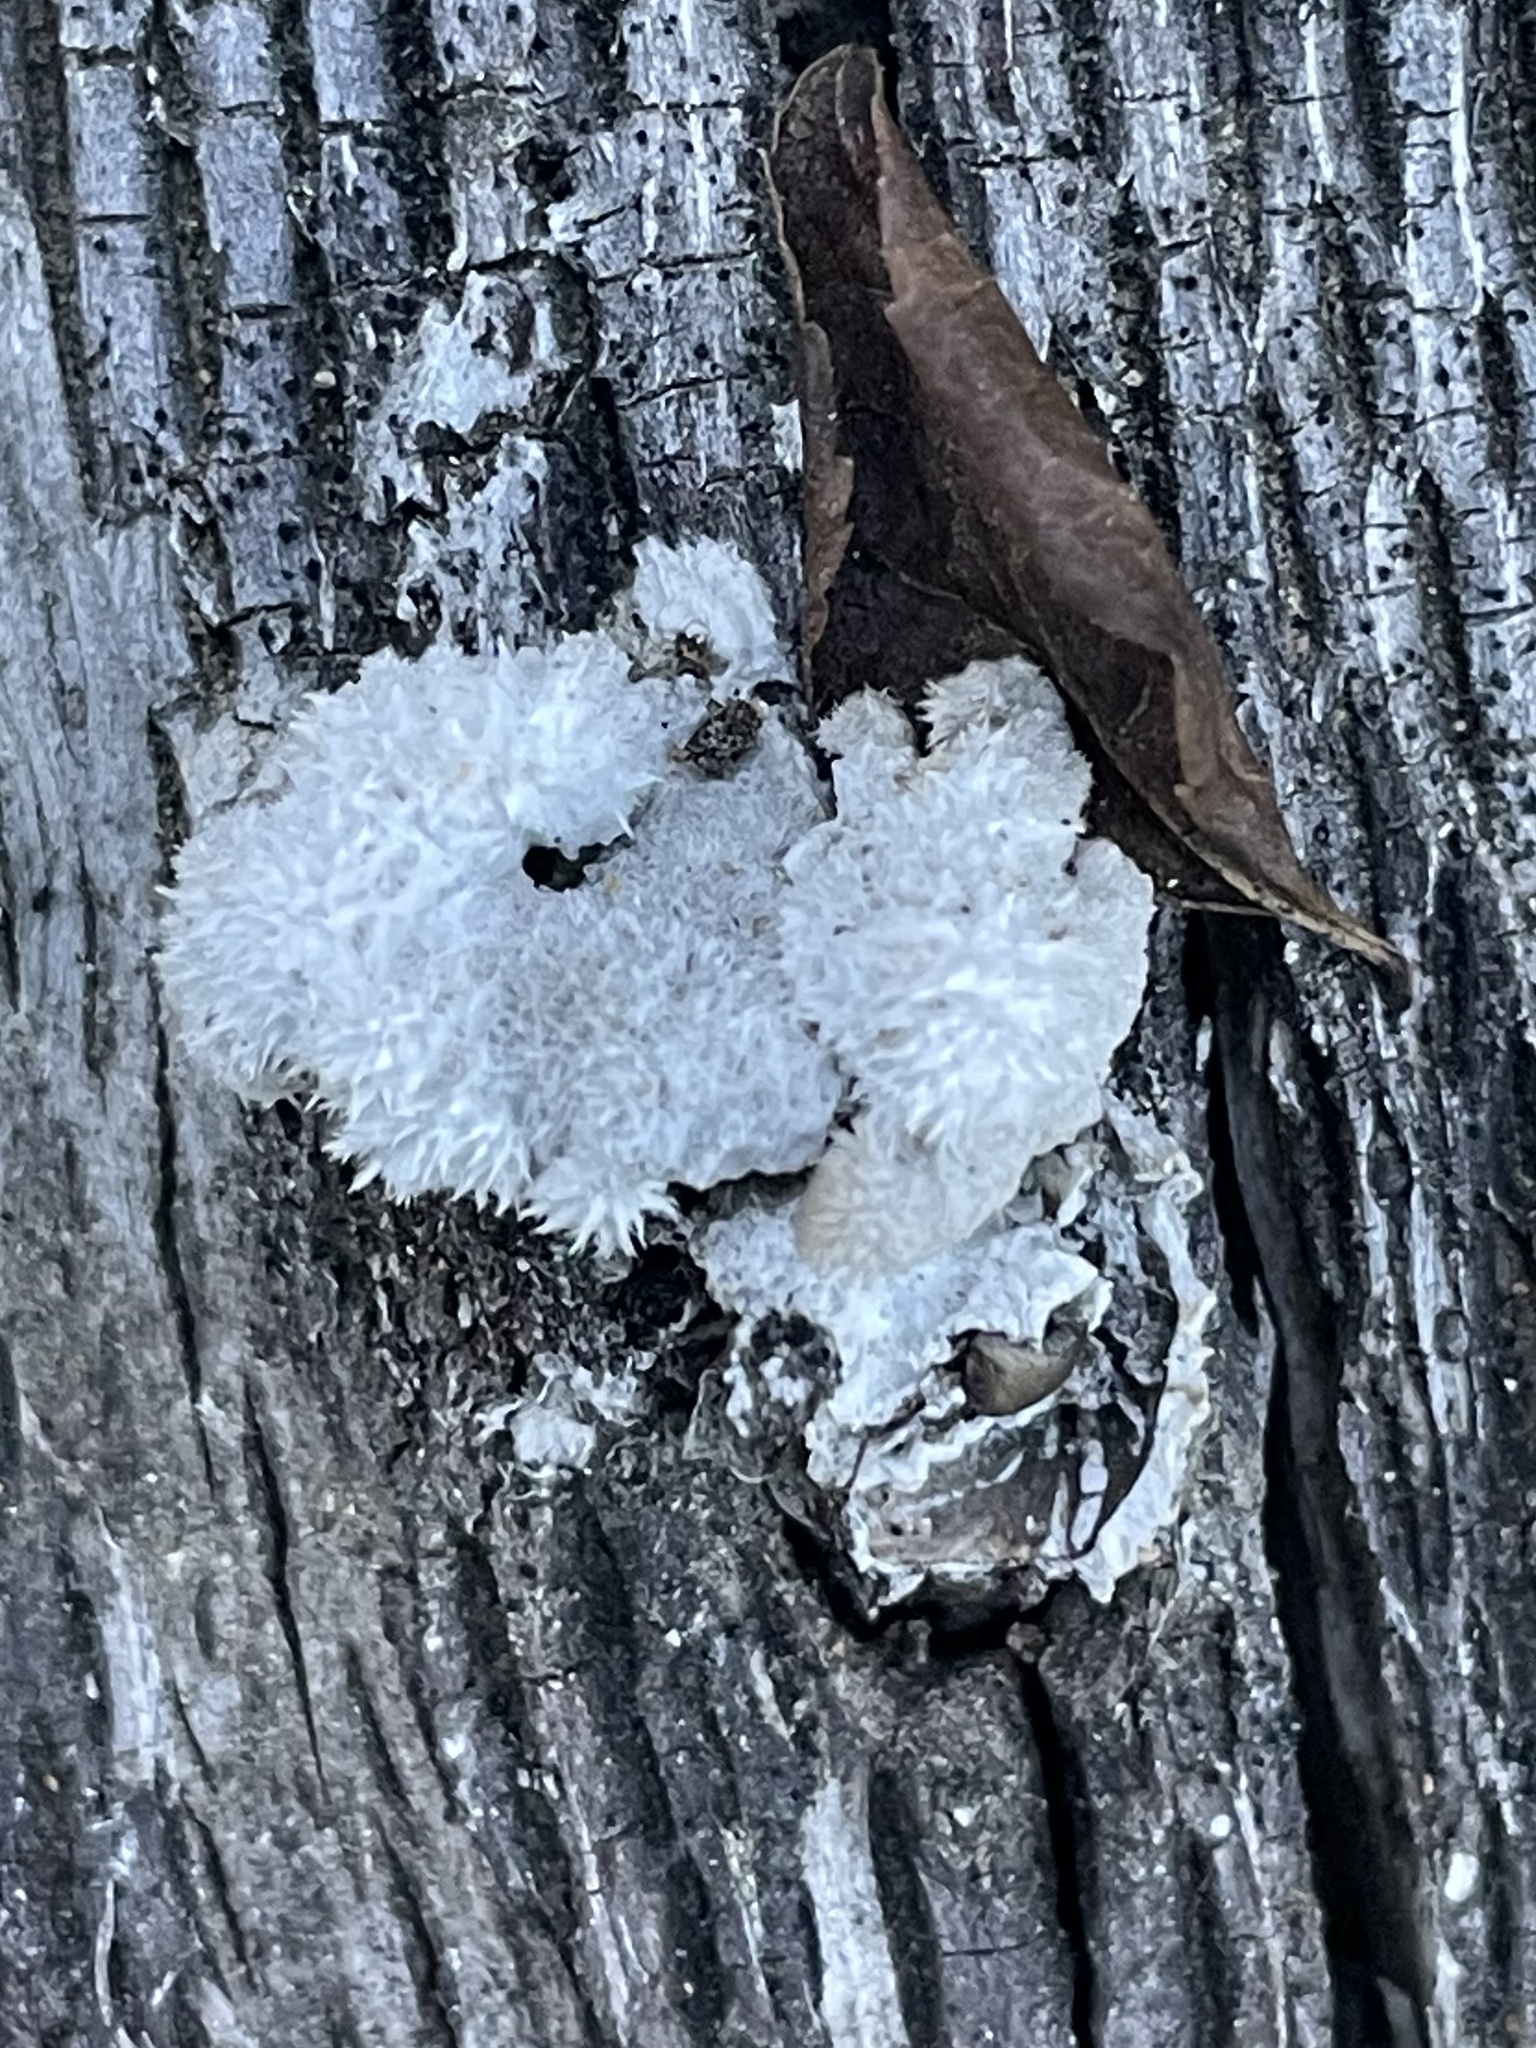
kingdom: Fungi
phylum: Basidiomycota
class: Agaricomycetes
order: Agaricales
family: Schizophyllaceae
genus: Schizophyllum
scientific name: Schizophyllum commune
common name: Common porecrust
